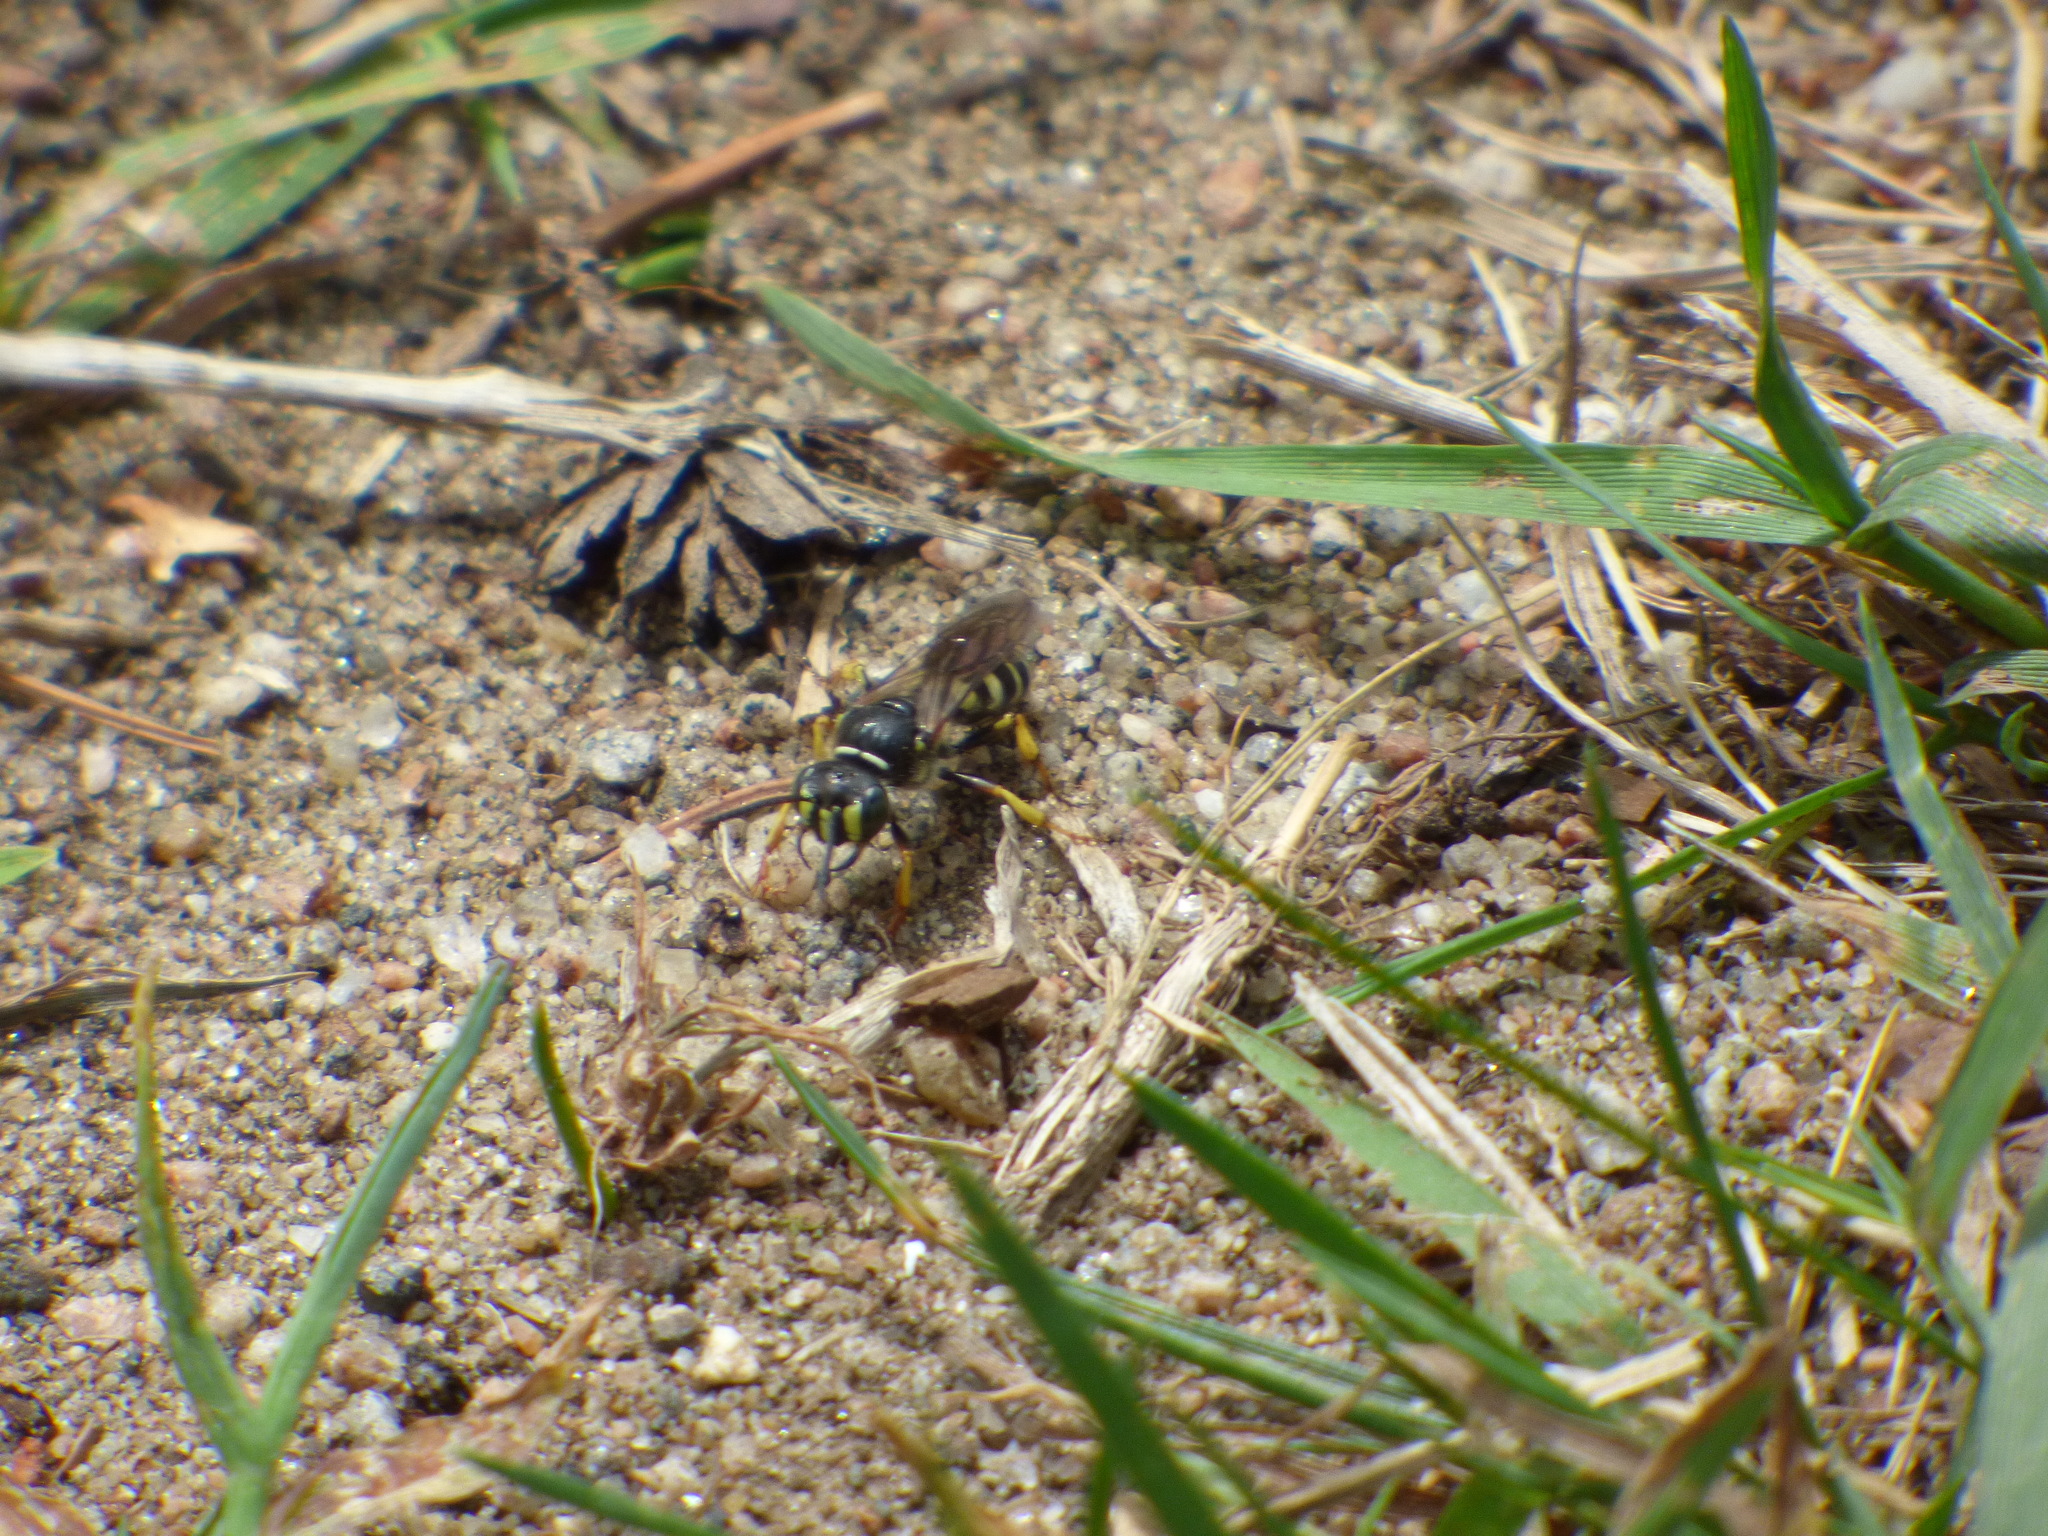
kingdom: Animalia
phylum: Arthropoda
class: Insecta
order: Hymenoptera
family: Crabronidae
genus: Aphilanthops
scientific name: Aphilanthops frigidus
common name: Queen ant kidnapper
